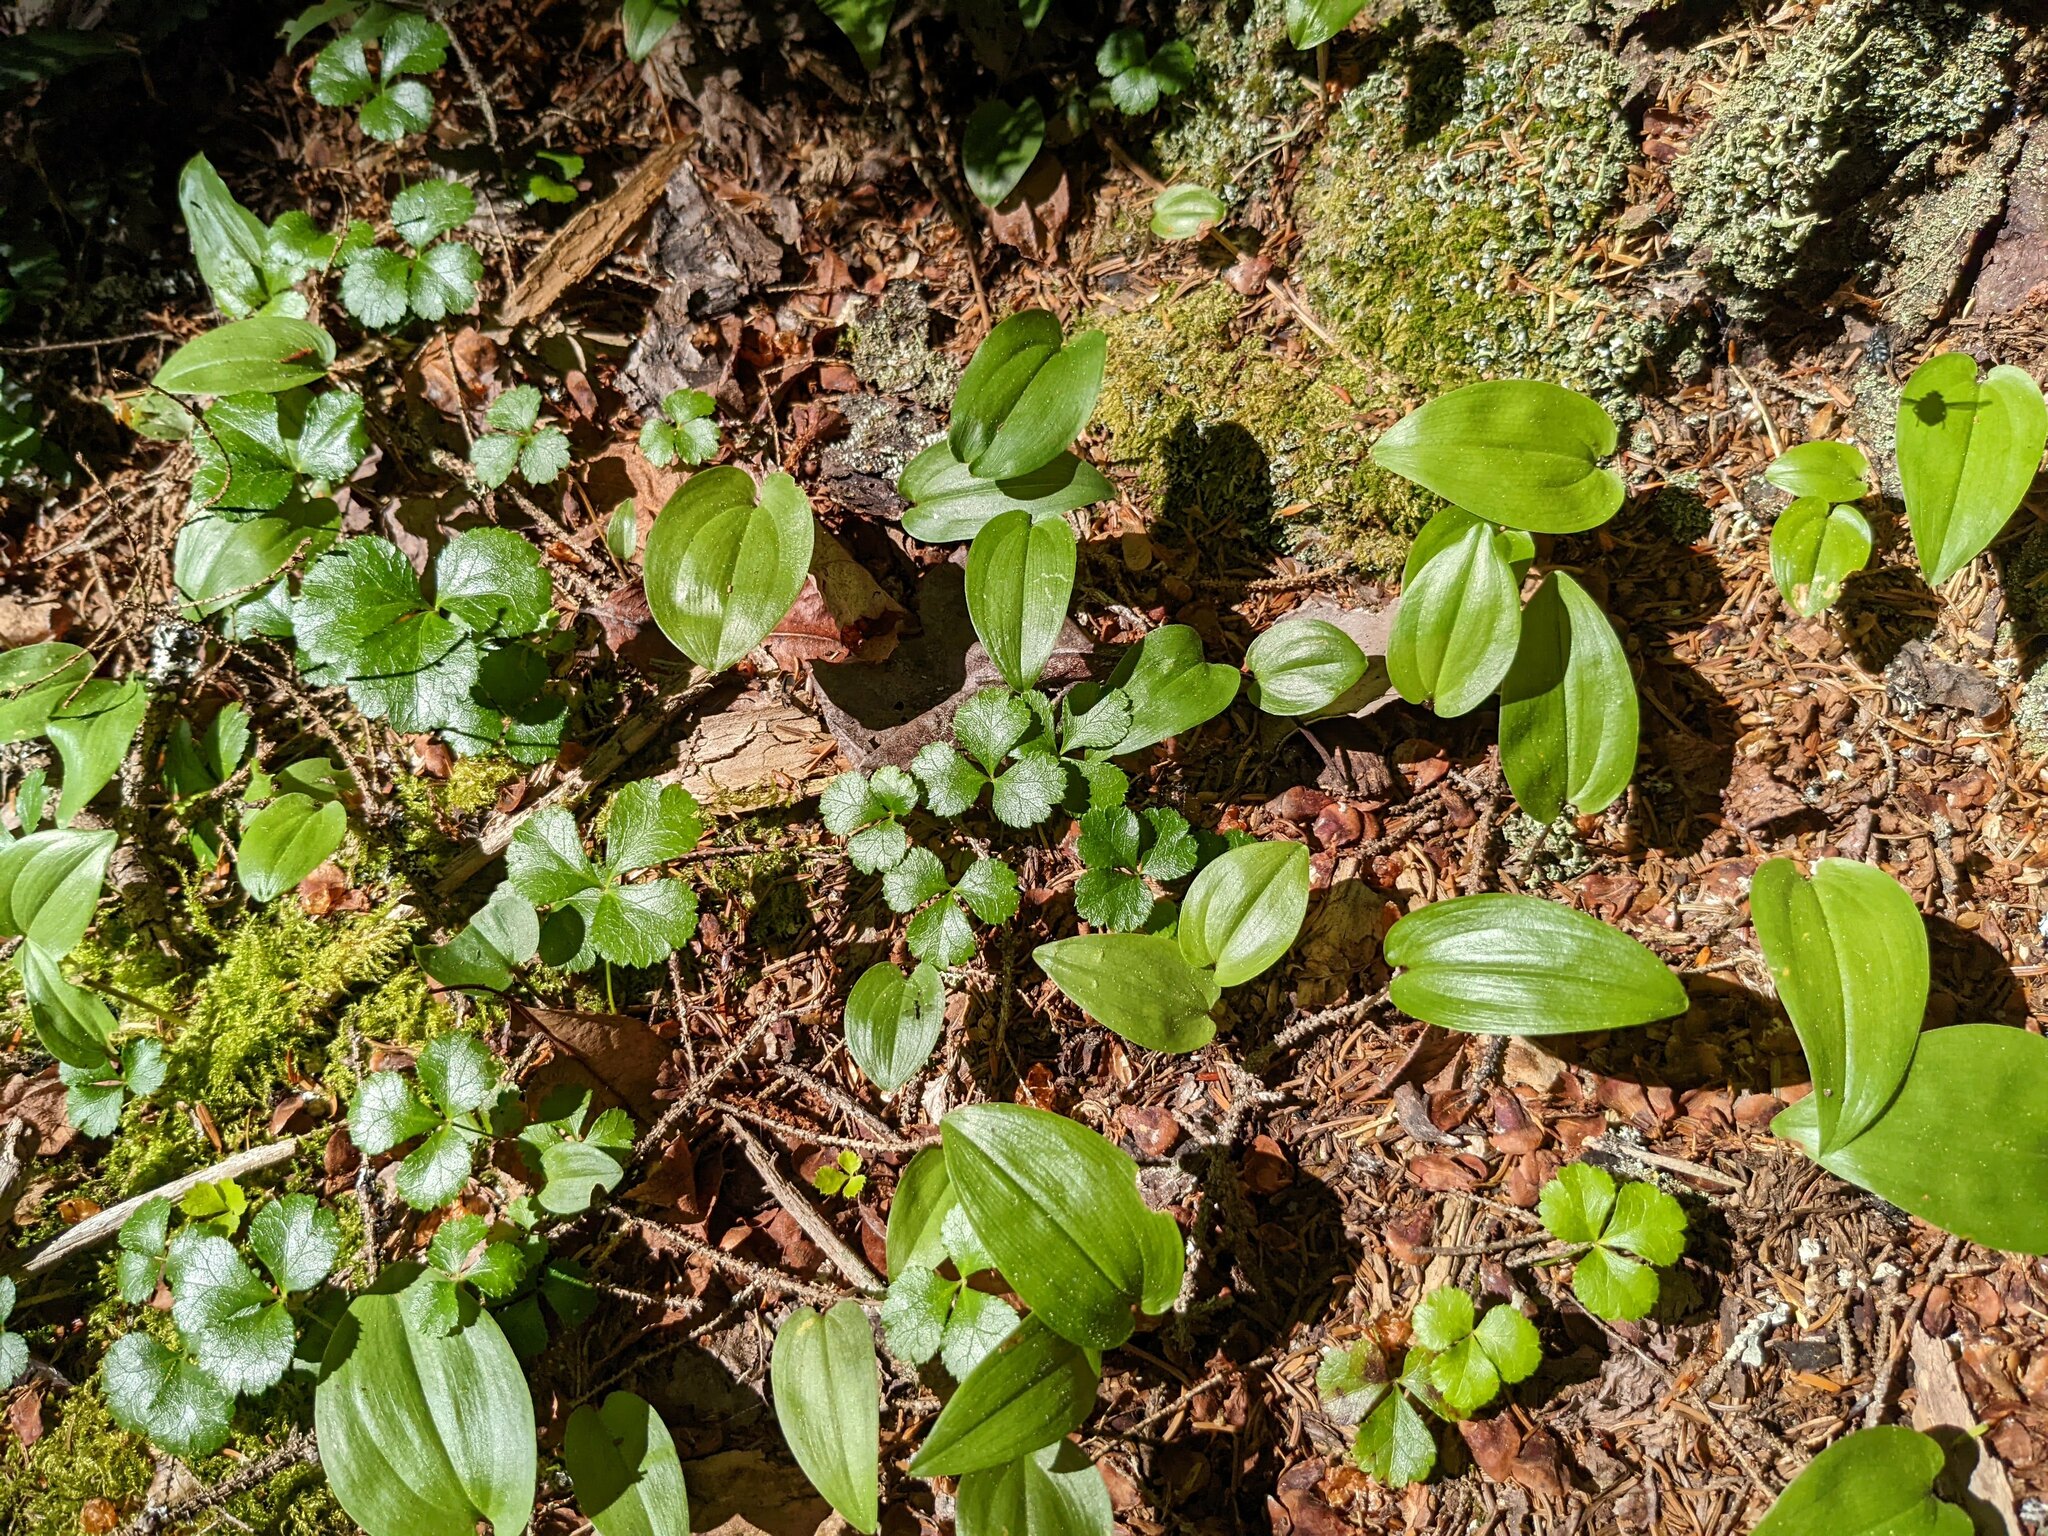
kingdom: Plantae
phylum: Tracheophyta
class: Magnoliopsida
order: Ranunculales
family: Ranunculaceae
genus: Coptis
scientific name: Coptis trifolia
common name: Canker-root
